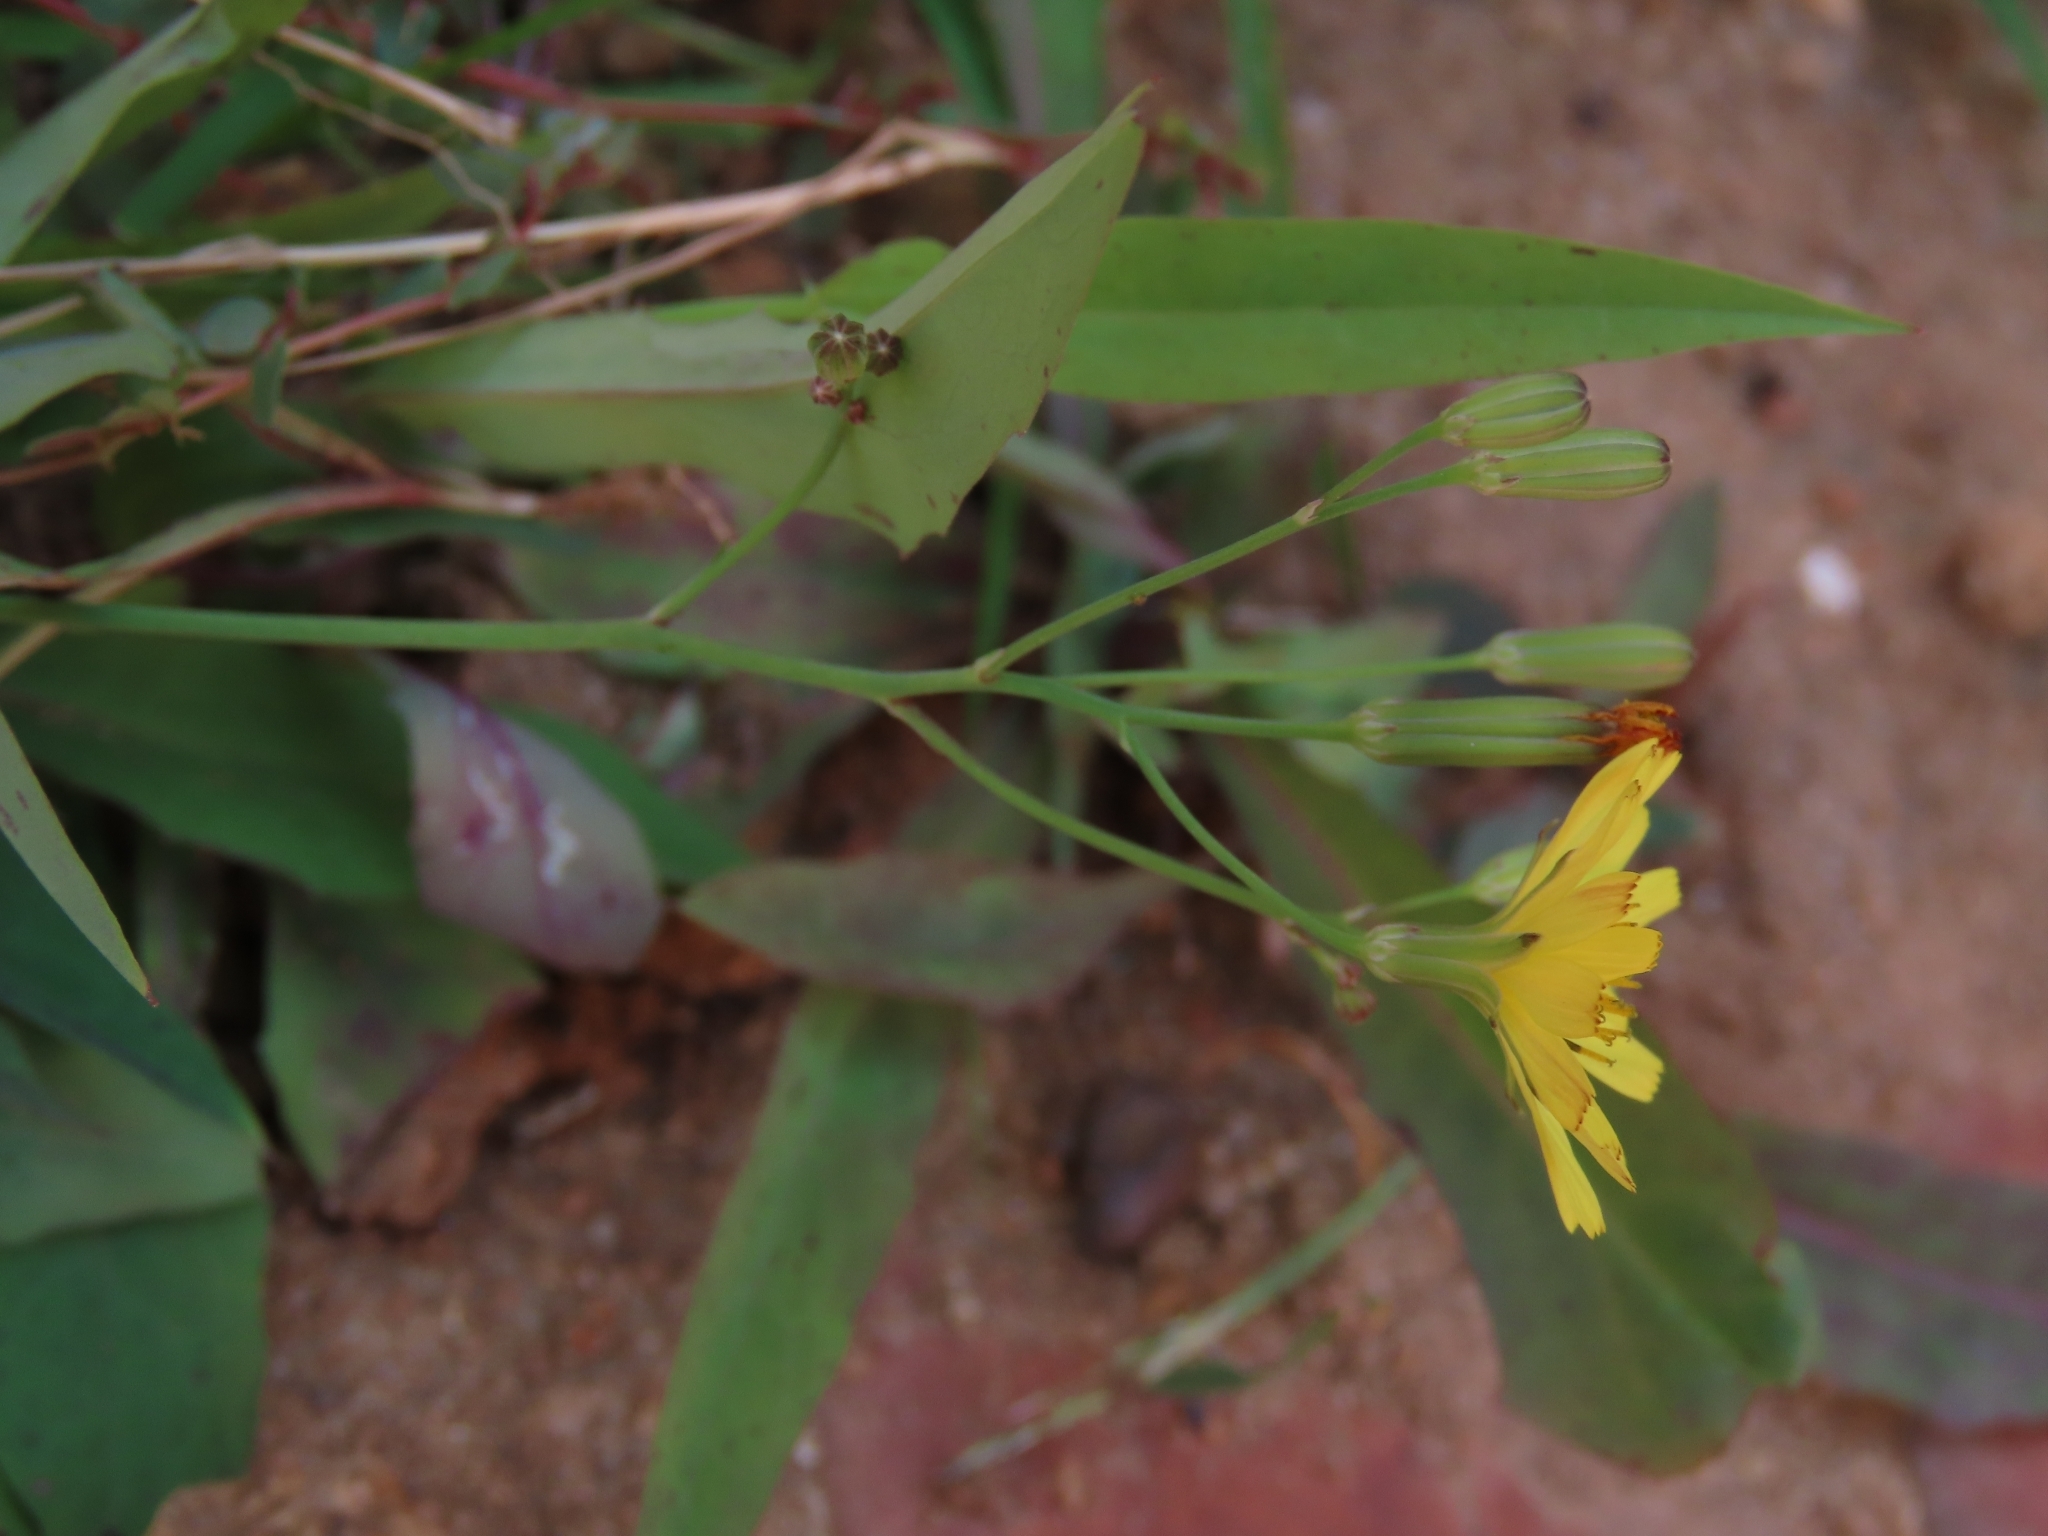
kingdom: Plantae
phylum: Tracheophyta
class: Magnoliopsida
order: Asterales
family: Asteraceae
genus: Ixeris
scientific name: Ixeris chinensis
